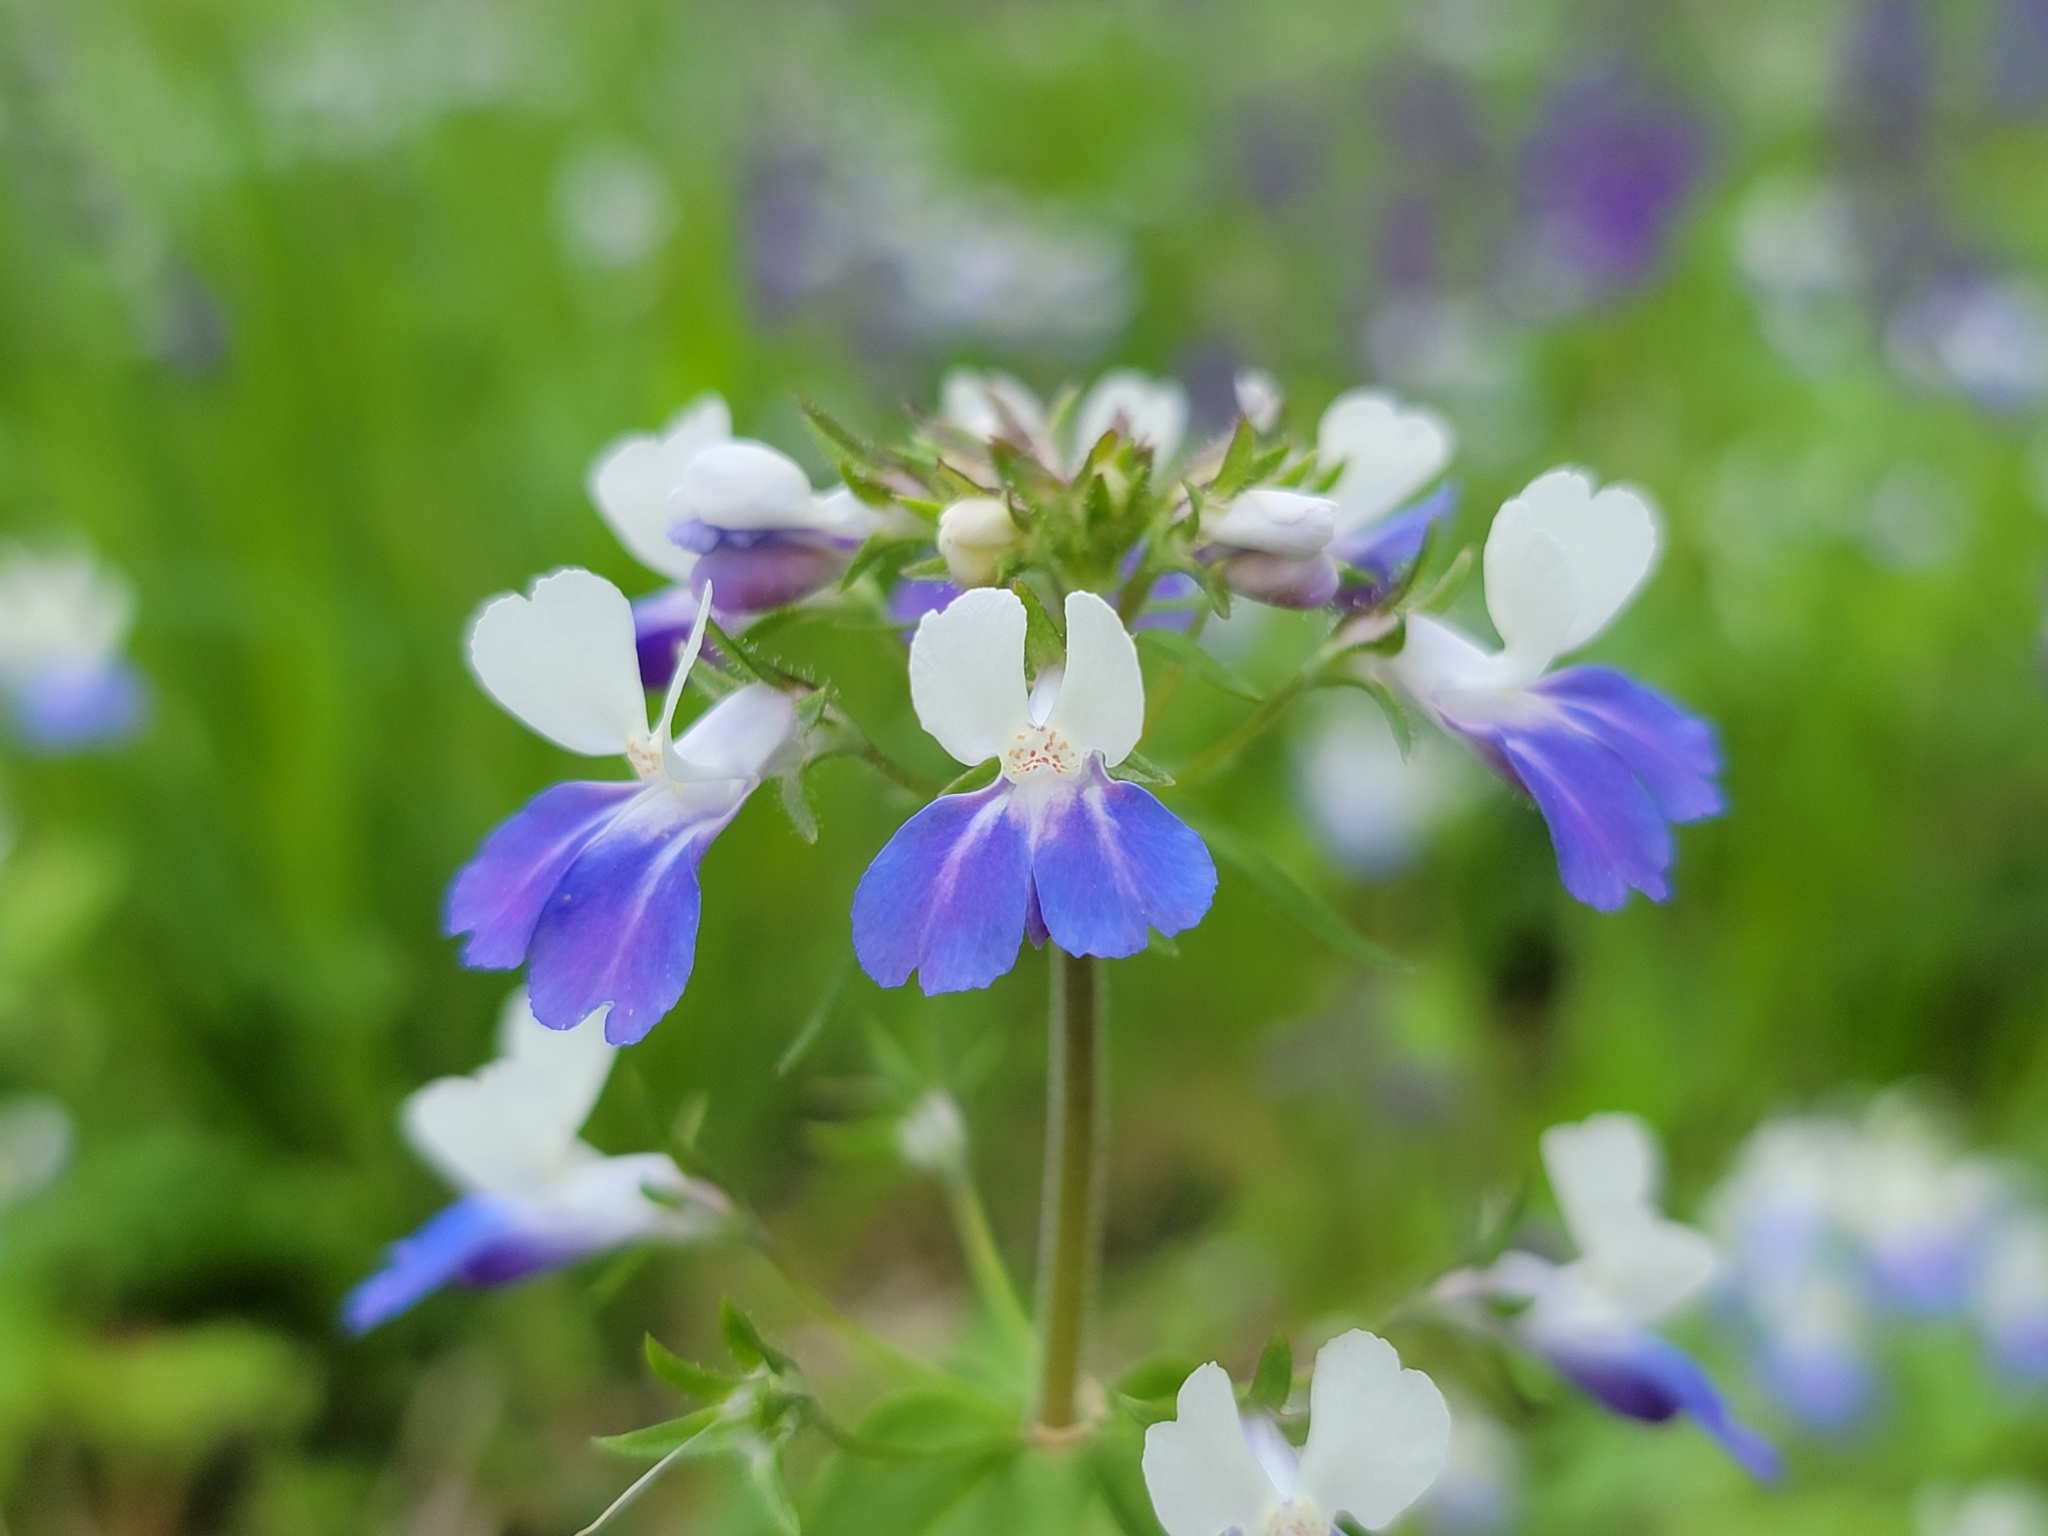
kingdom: Plantae
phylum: Tracheophyta
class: Magnoliopsida
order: Lamiales
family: Plantaginaceae
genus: Collinsia
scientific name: Collinsia verna
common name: Broad-leaved collinsia
